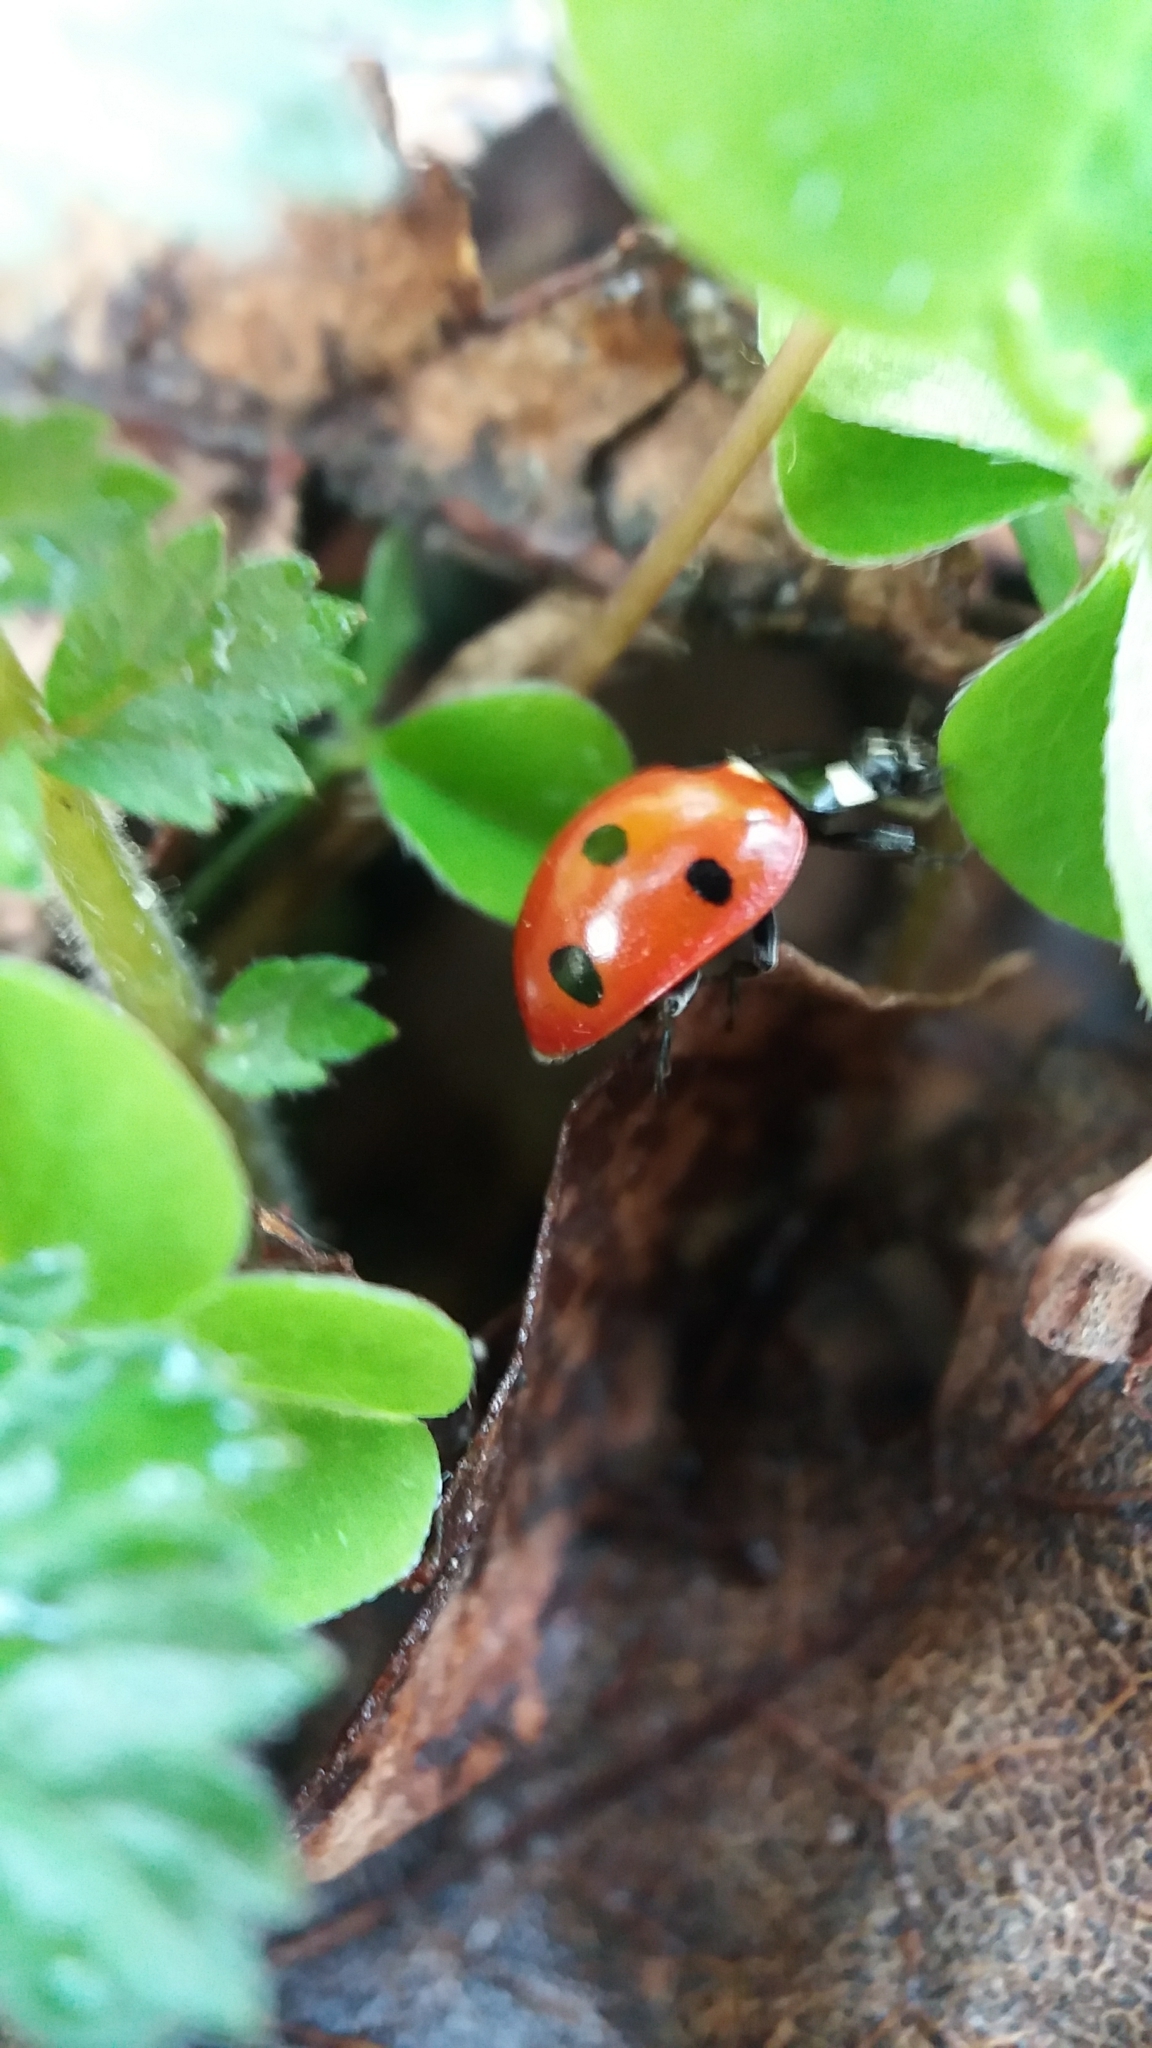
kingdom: Animalia
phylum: Arthropoda
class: Insecta
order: Coleoptera
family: Coccinellidae
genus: Coccinella
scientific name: Coccinella septempunctata
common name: Sevenspotted lady beetle
